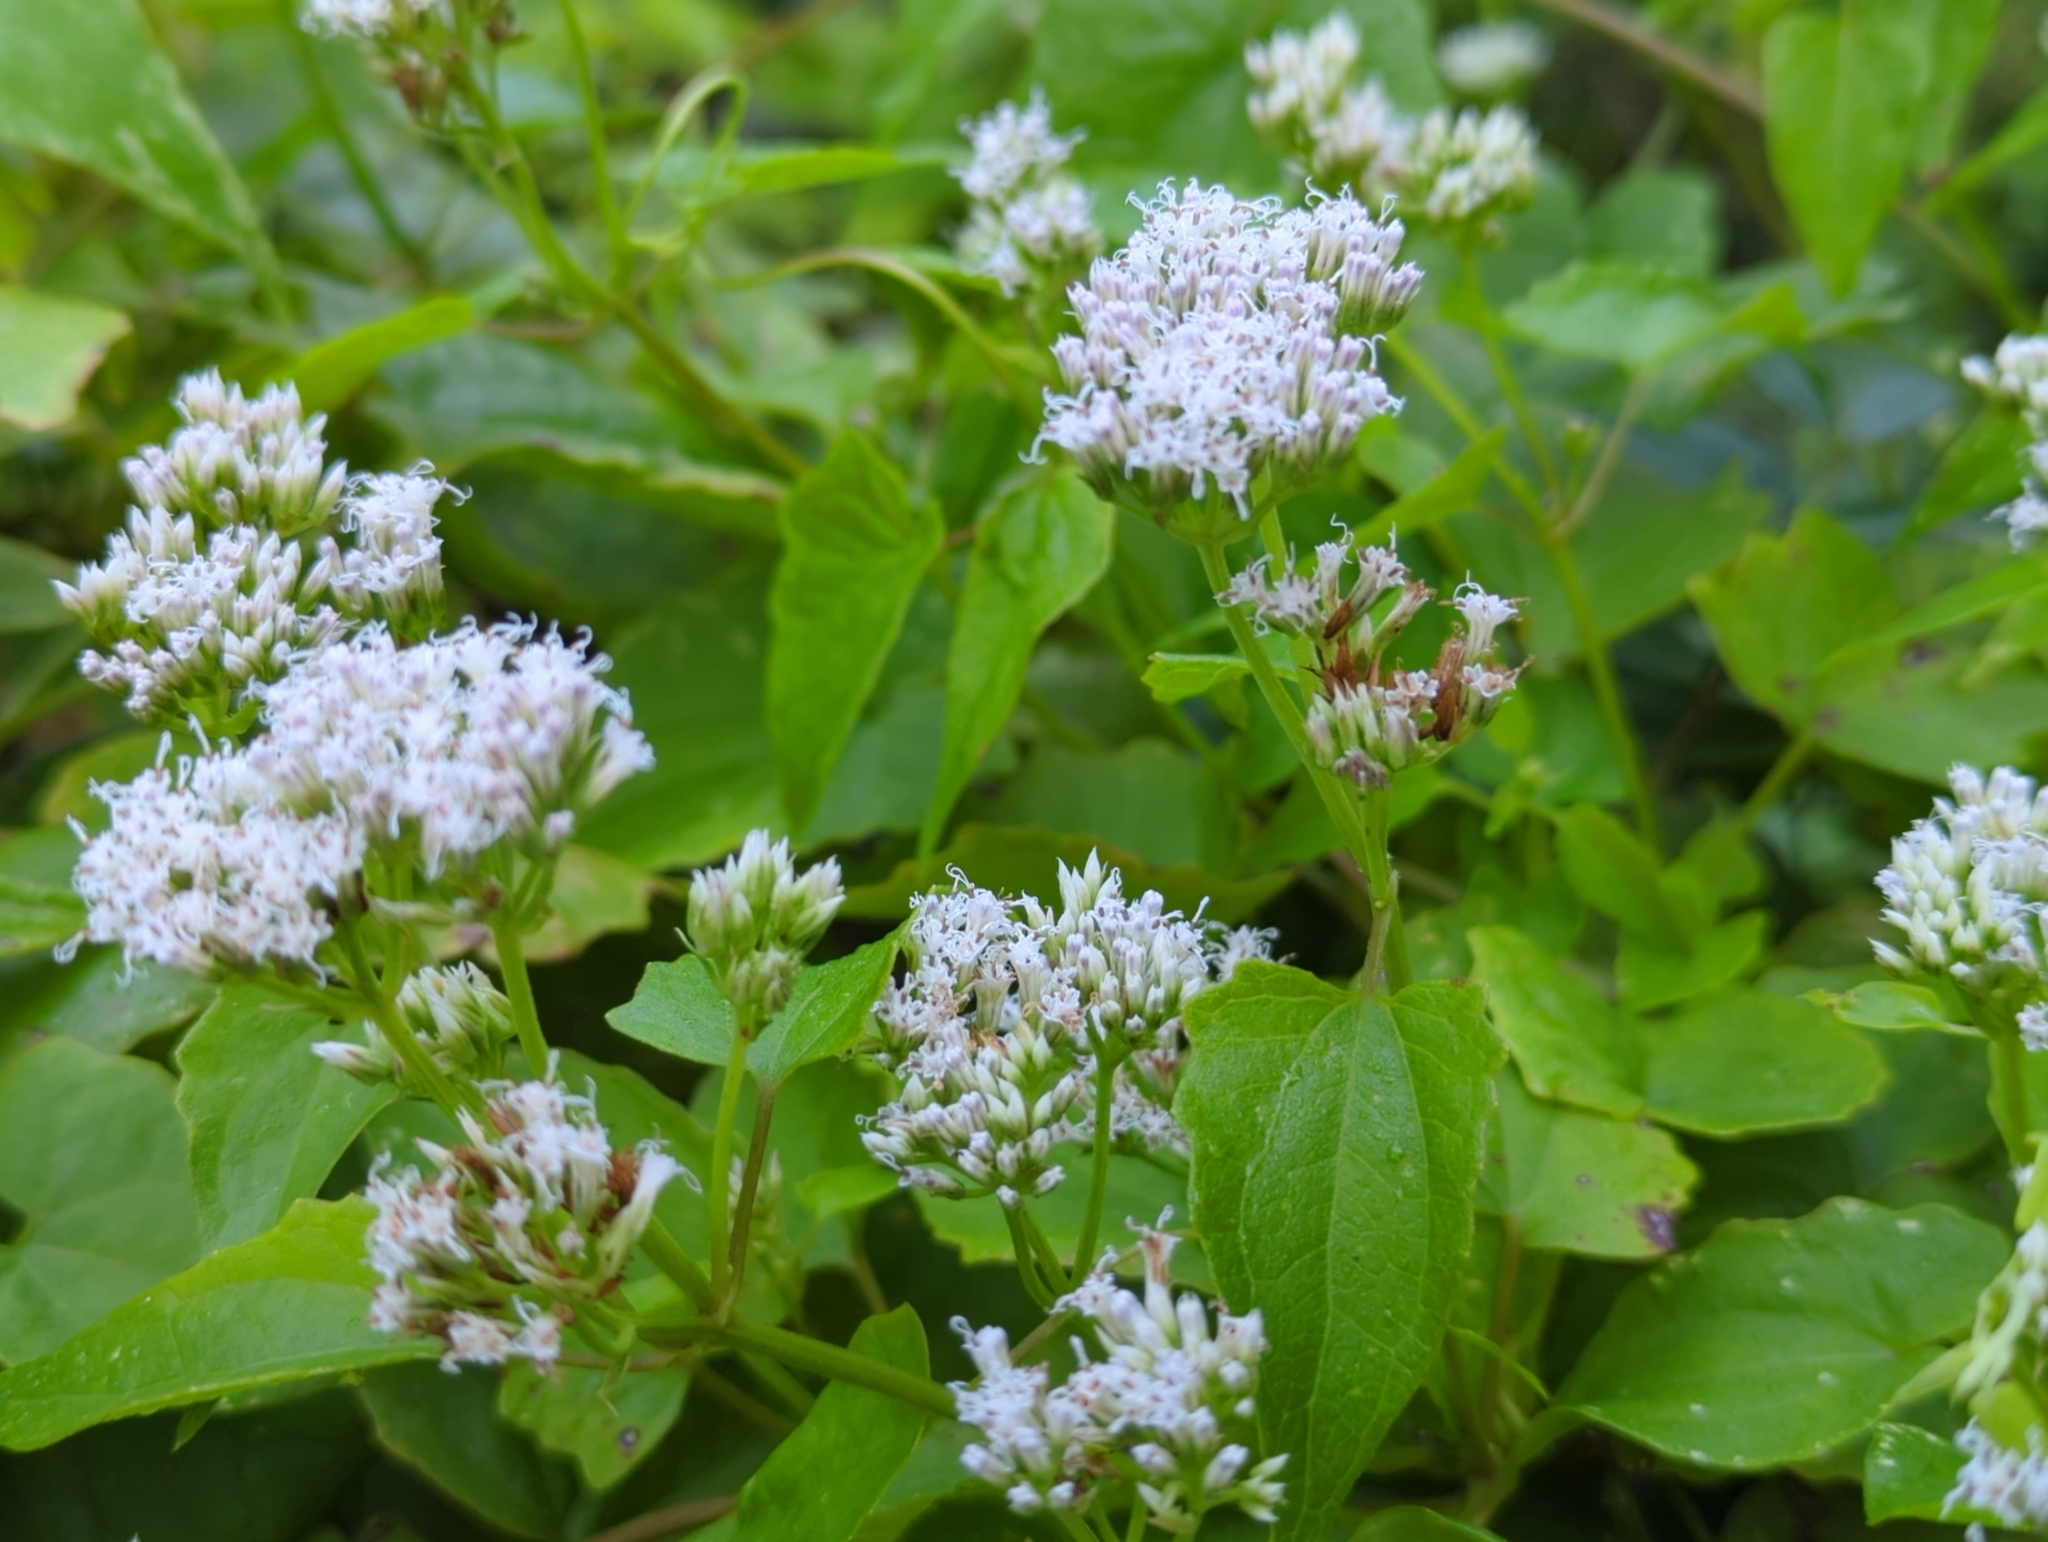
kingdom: Plantae
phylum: Tracheophyta
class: Magnoliopsida
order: Asterales
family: Asteraceae
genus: Mikania
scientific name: Mikania scandens
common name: Climbing hempvine
